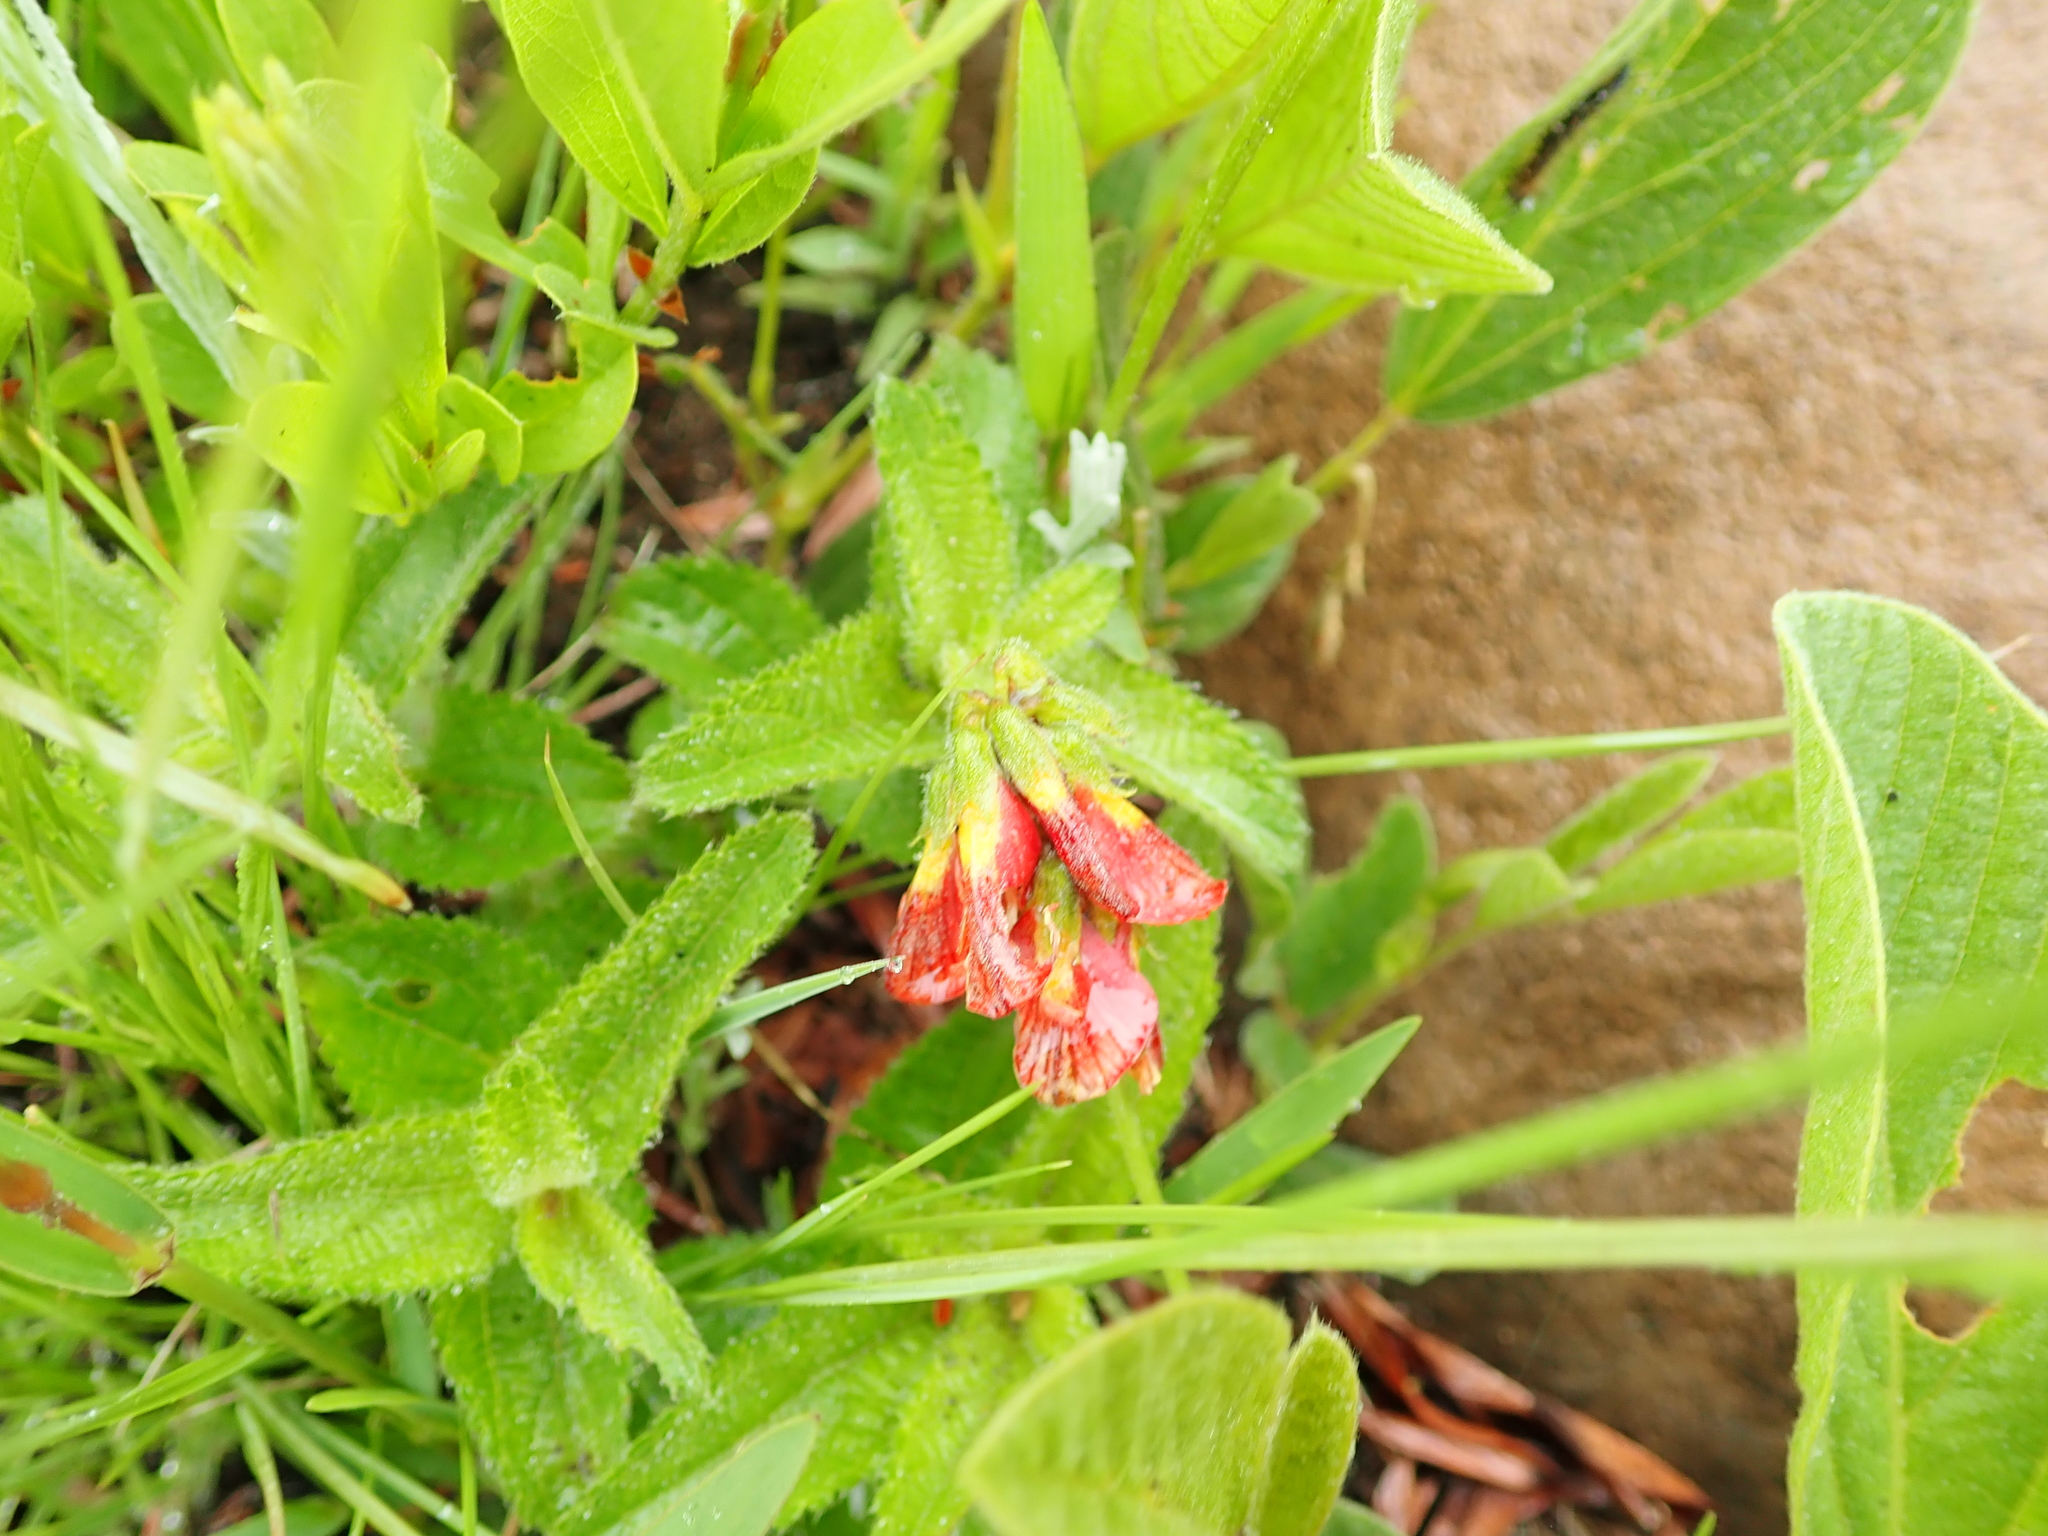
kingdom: Plantae
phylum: Tracheophyta
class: Magnoliopsida
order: Fabales
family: Fabaceae
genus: Eriosema
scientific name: Eriosema distinctum
